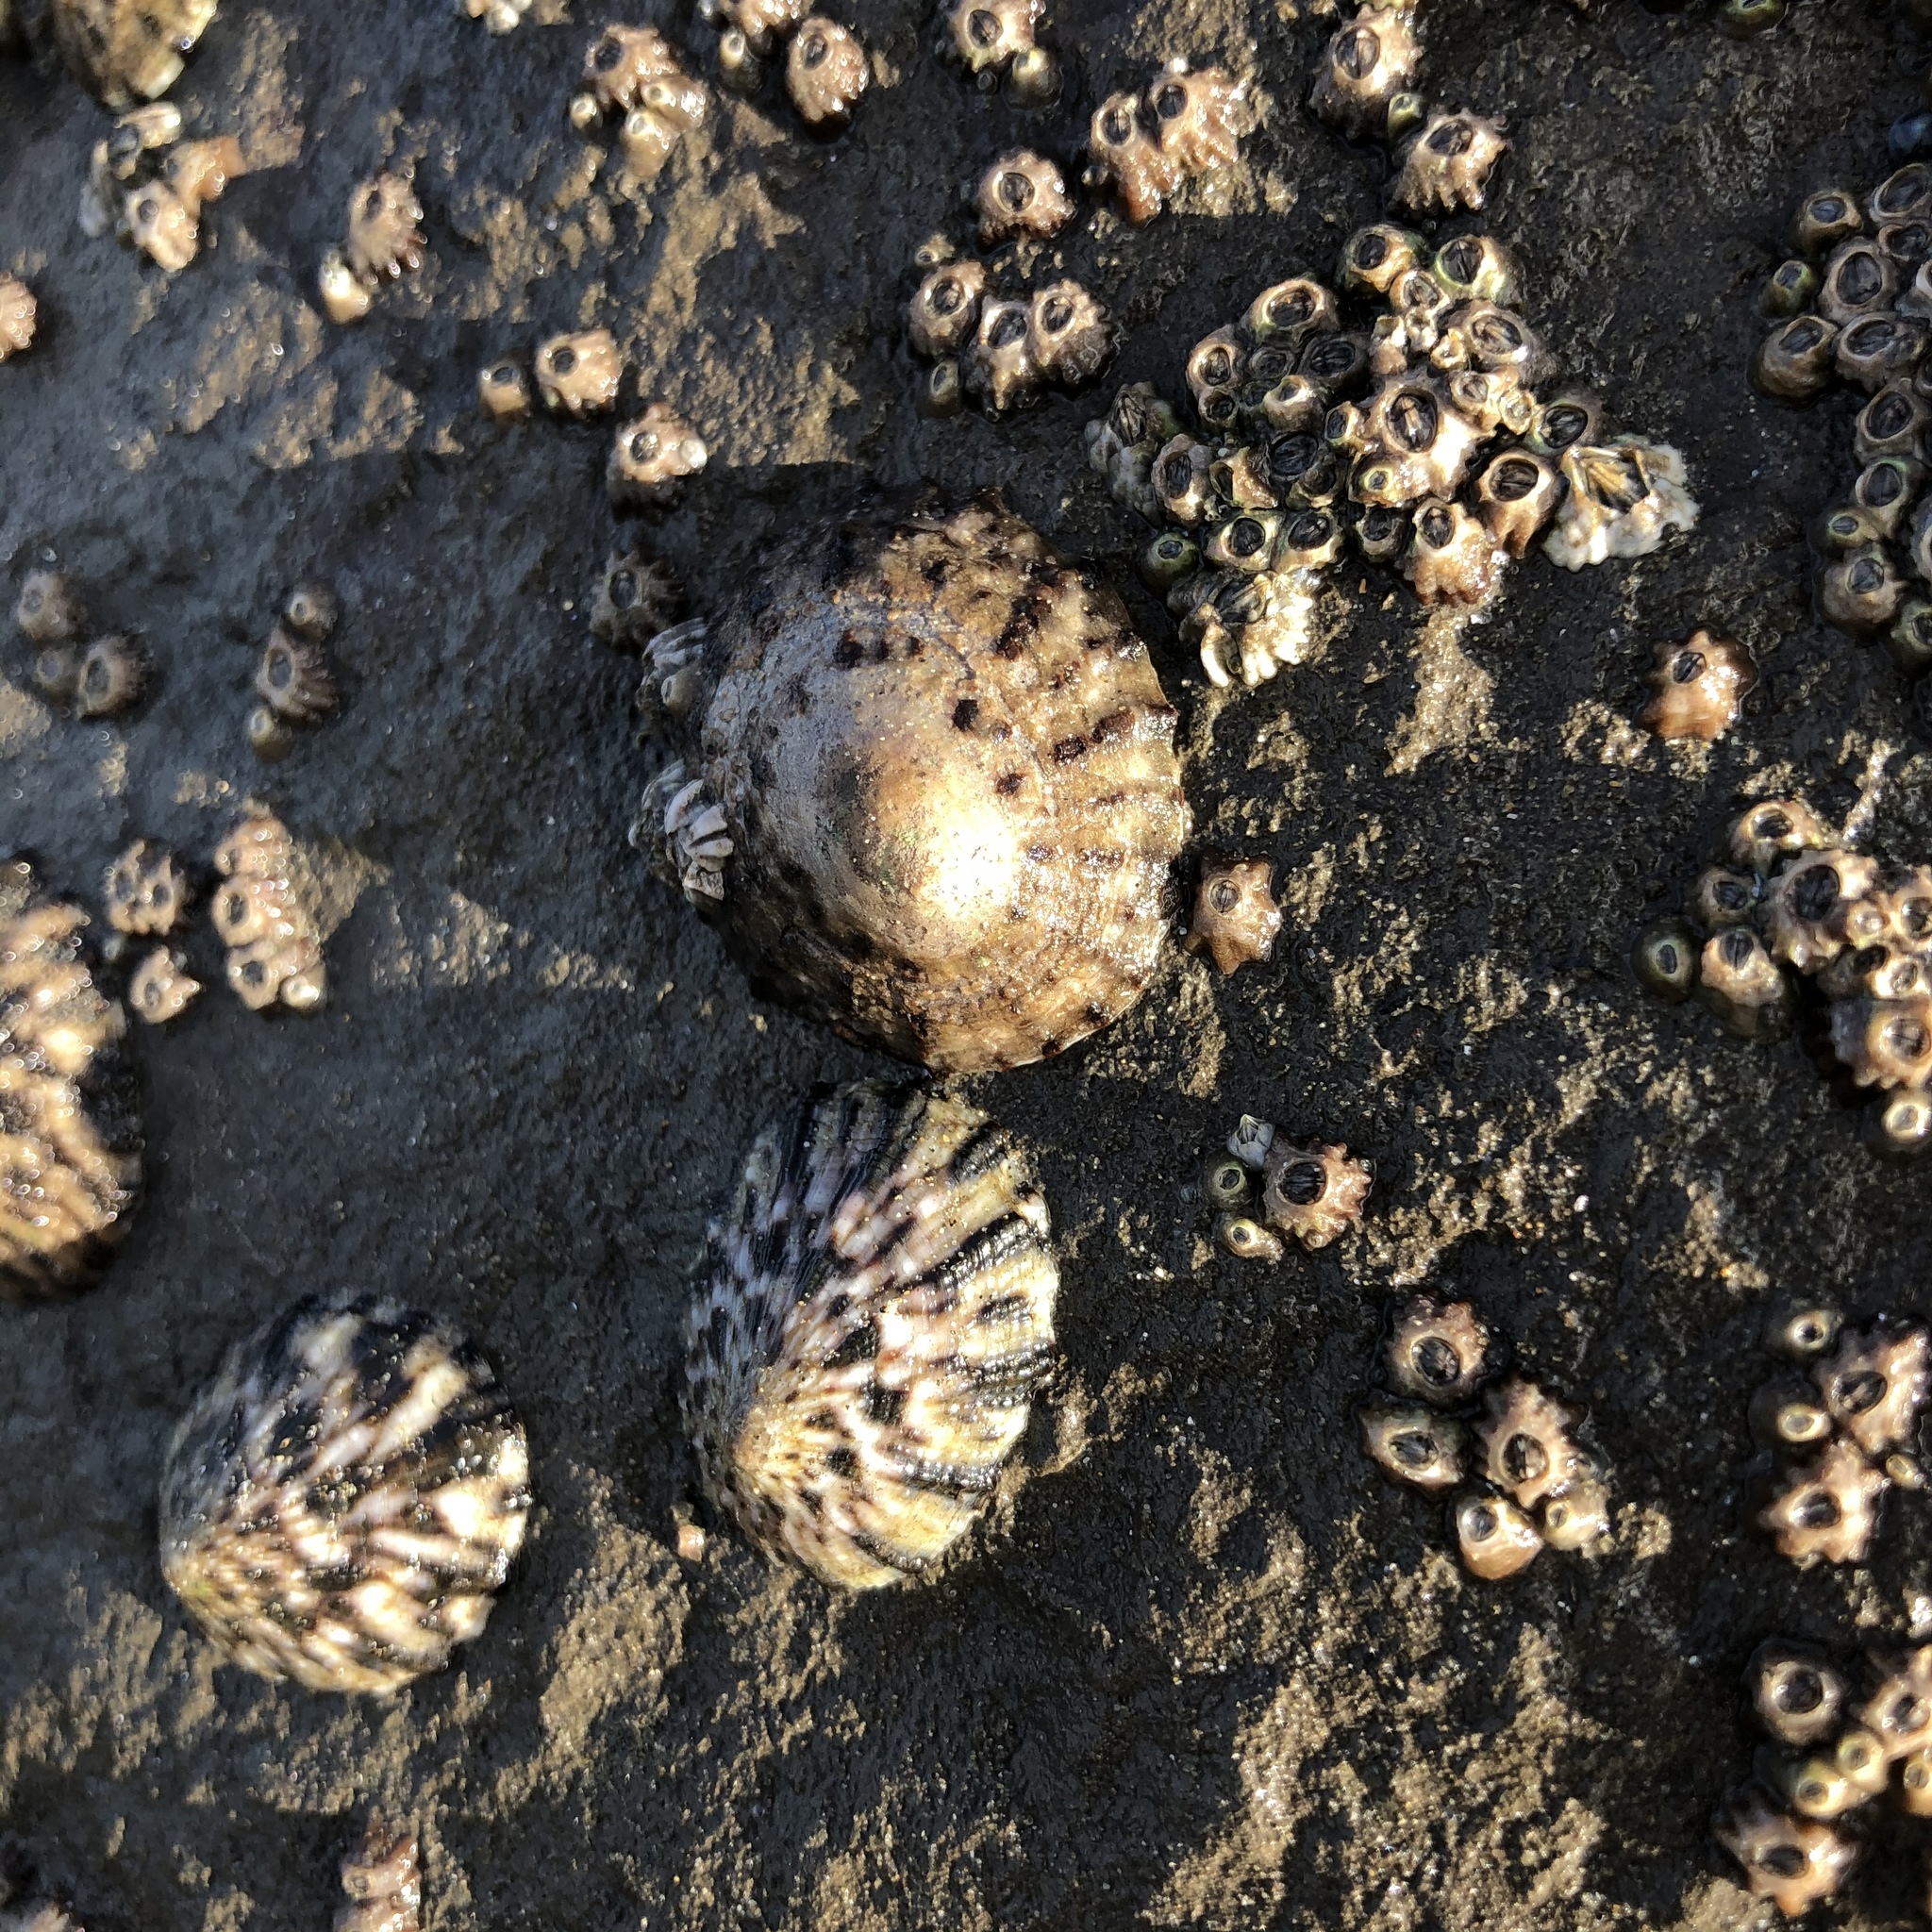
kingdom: Animalia
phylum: Mollusca
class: Gastropoda
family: Nacellidae
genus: Cellana
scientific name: Cellana strigilis
